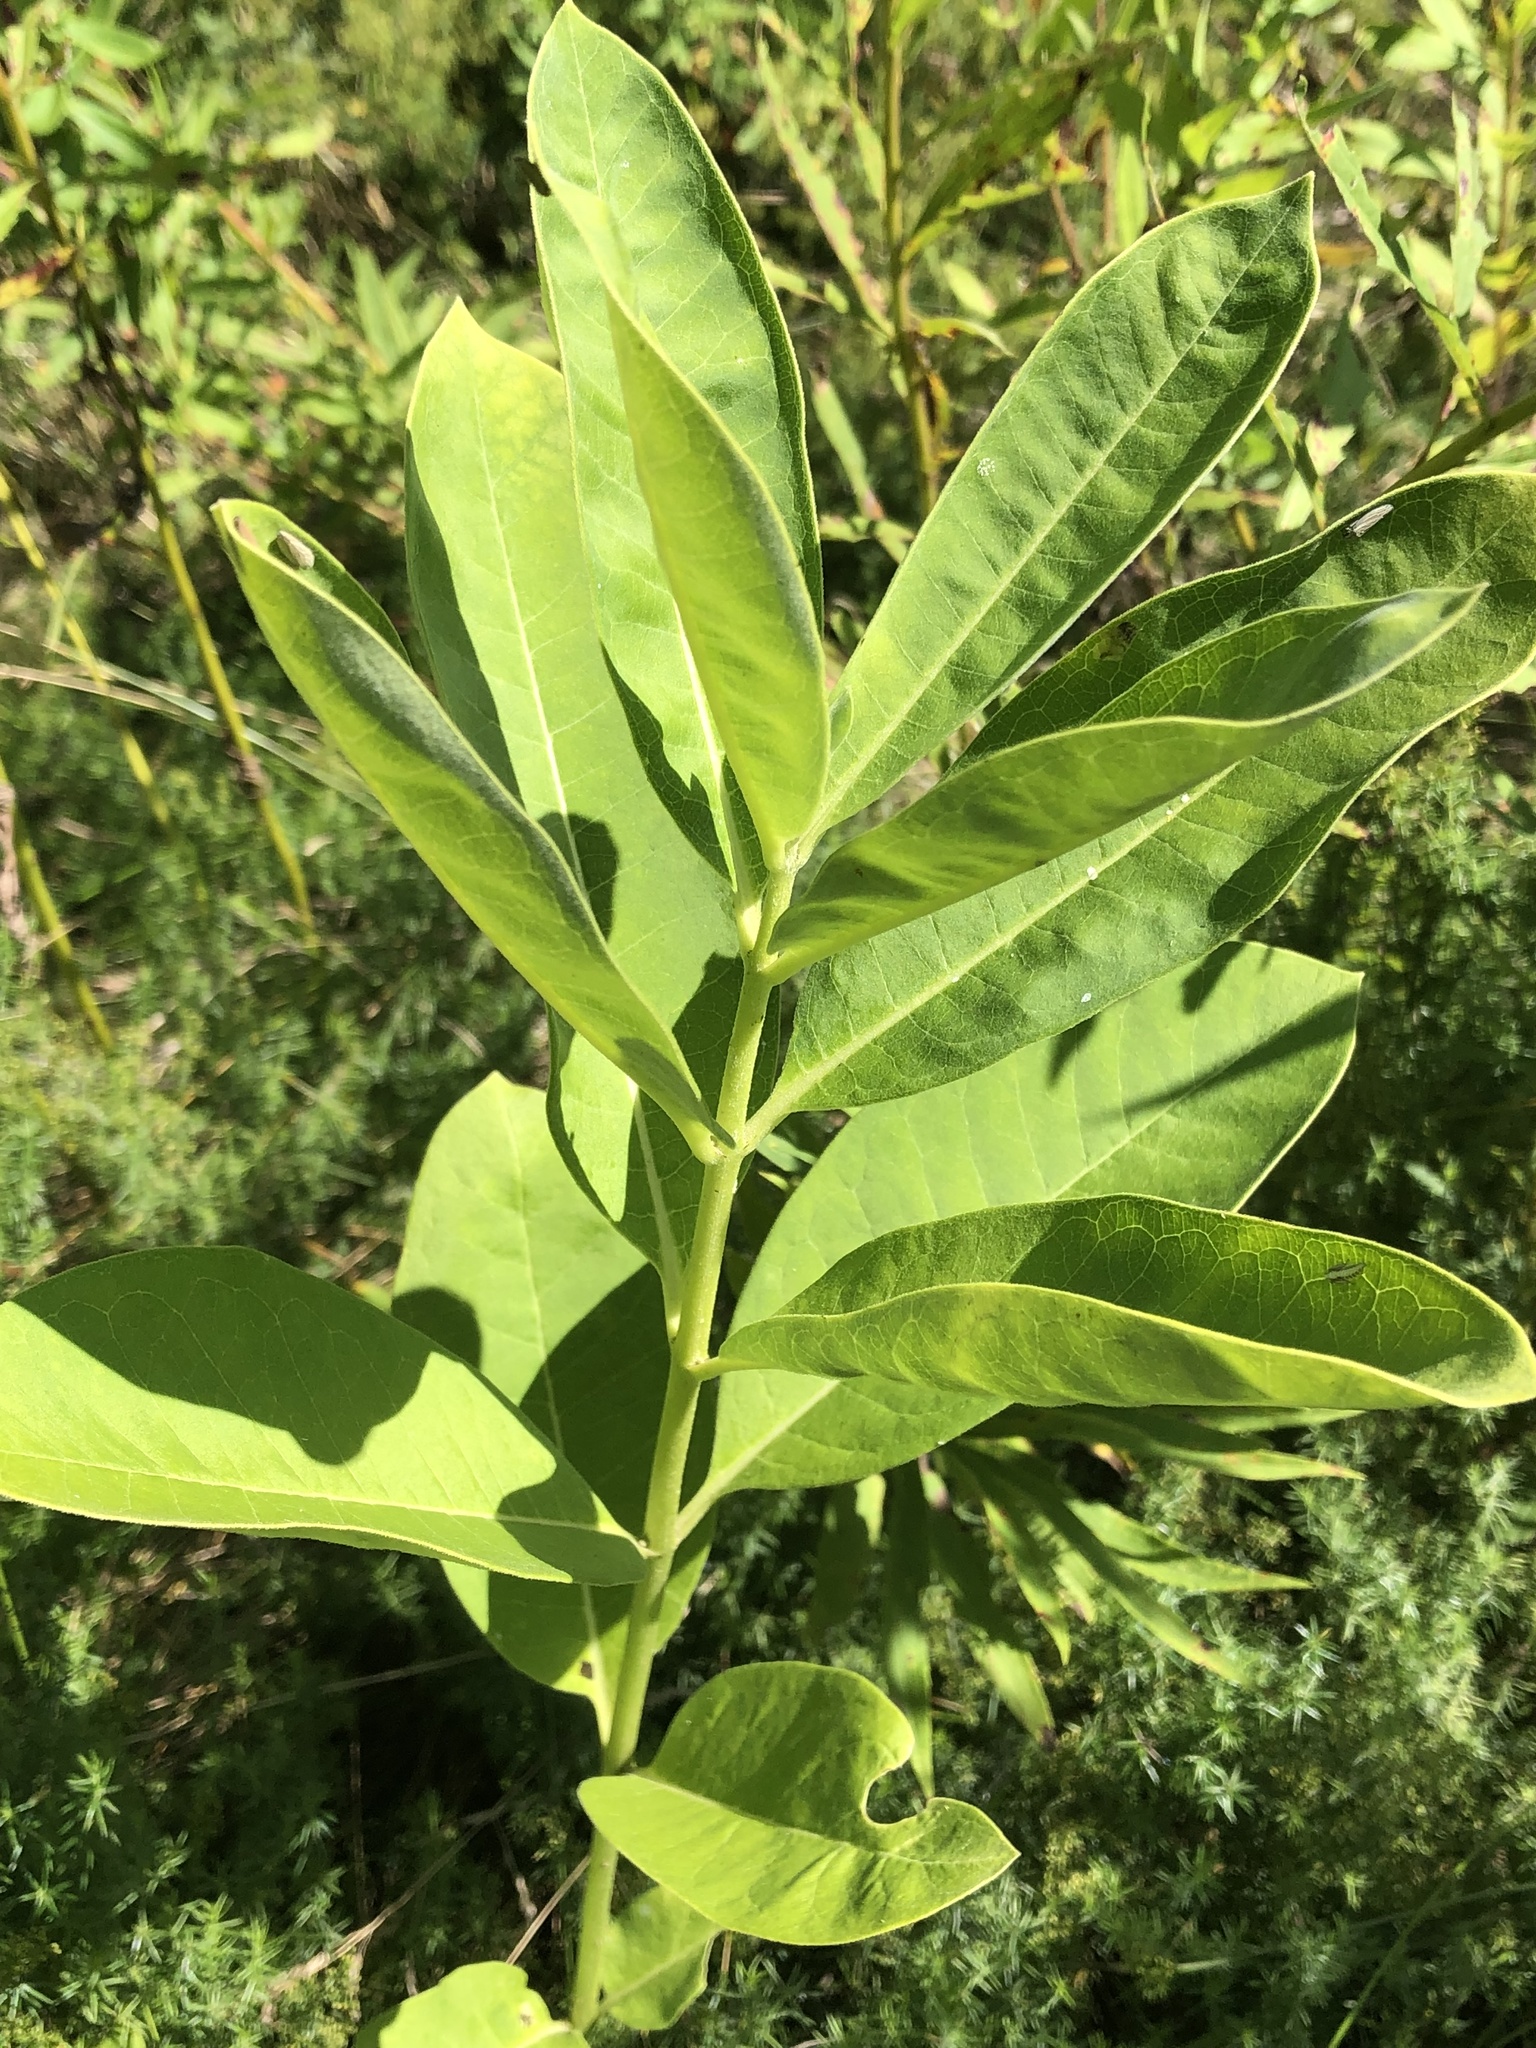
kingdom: Plantae
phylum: Tracheophyta
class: Magnoliopsida
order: Gentianales
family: Apocynaceae
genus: Asclepias
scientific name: Asclepias syriaca
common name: Common milkweed
